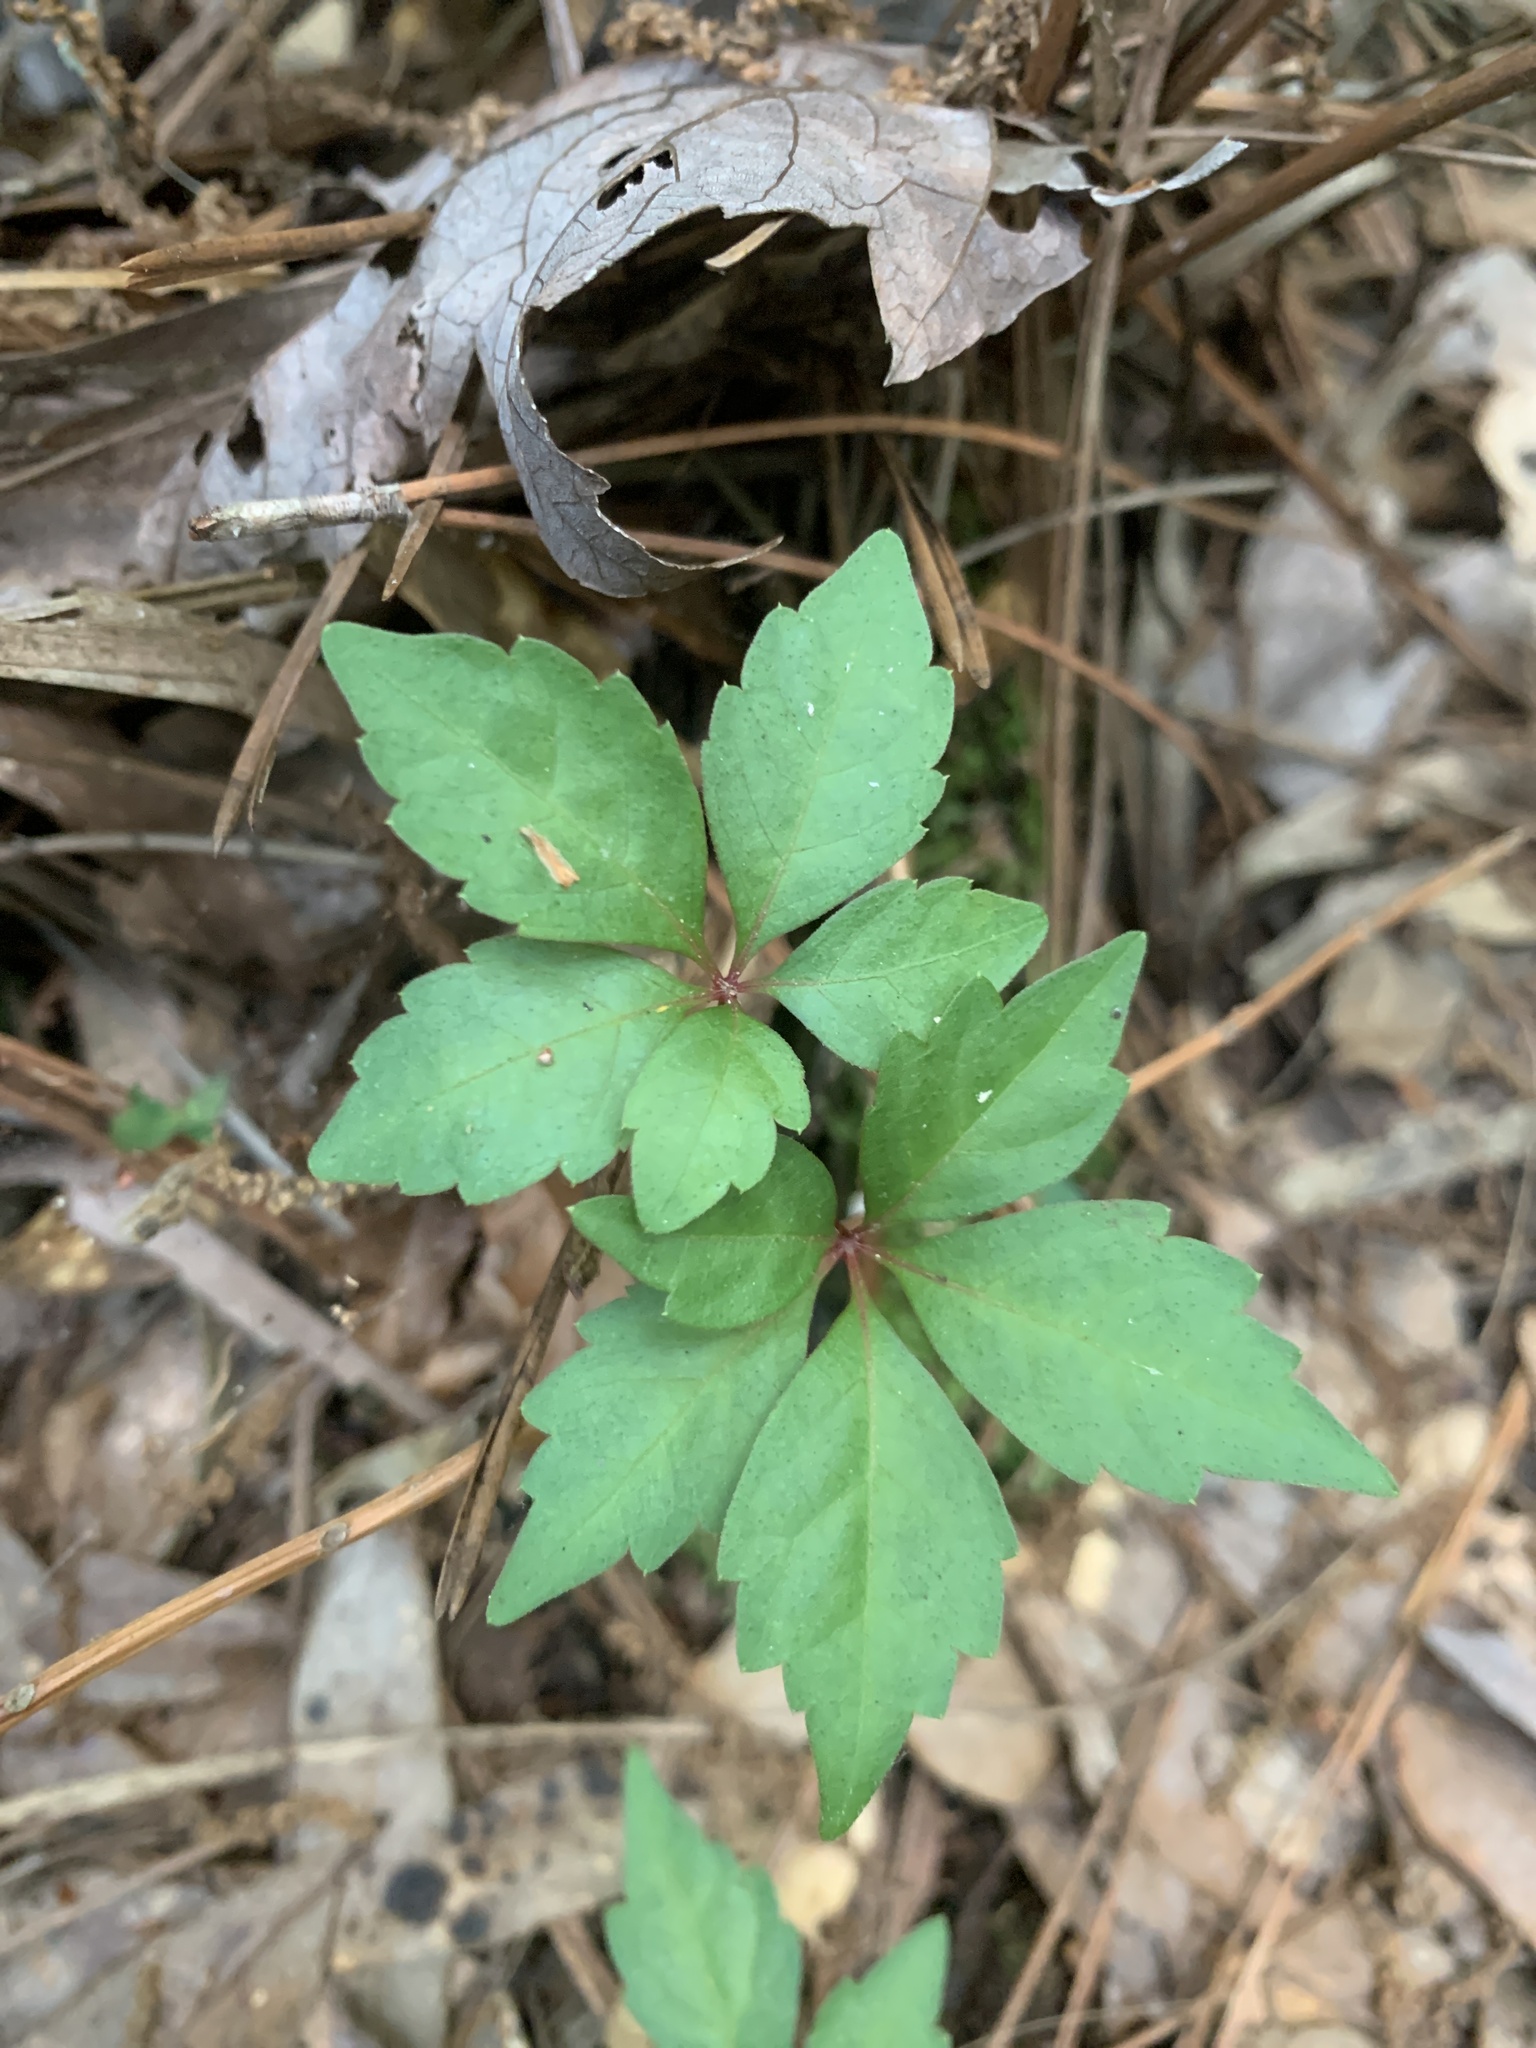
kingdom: Plantae
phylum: Tracheophyta
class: Magnoliopsida
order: Vitales
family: Vitaceae
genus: Parthenocissus
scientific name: Parthenocissus quinquefolia
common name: Virginia-creeper
